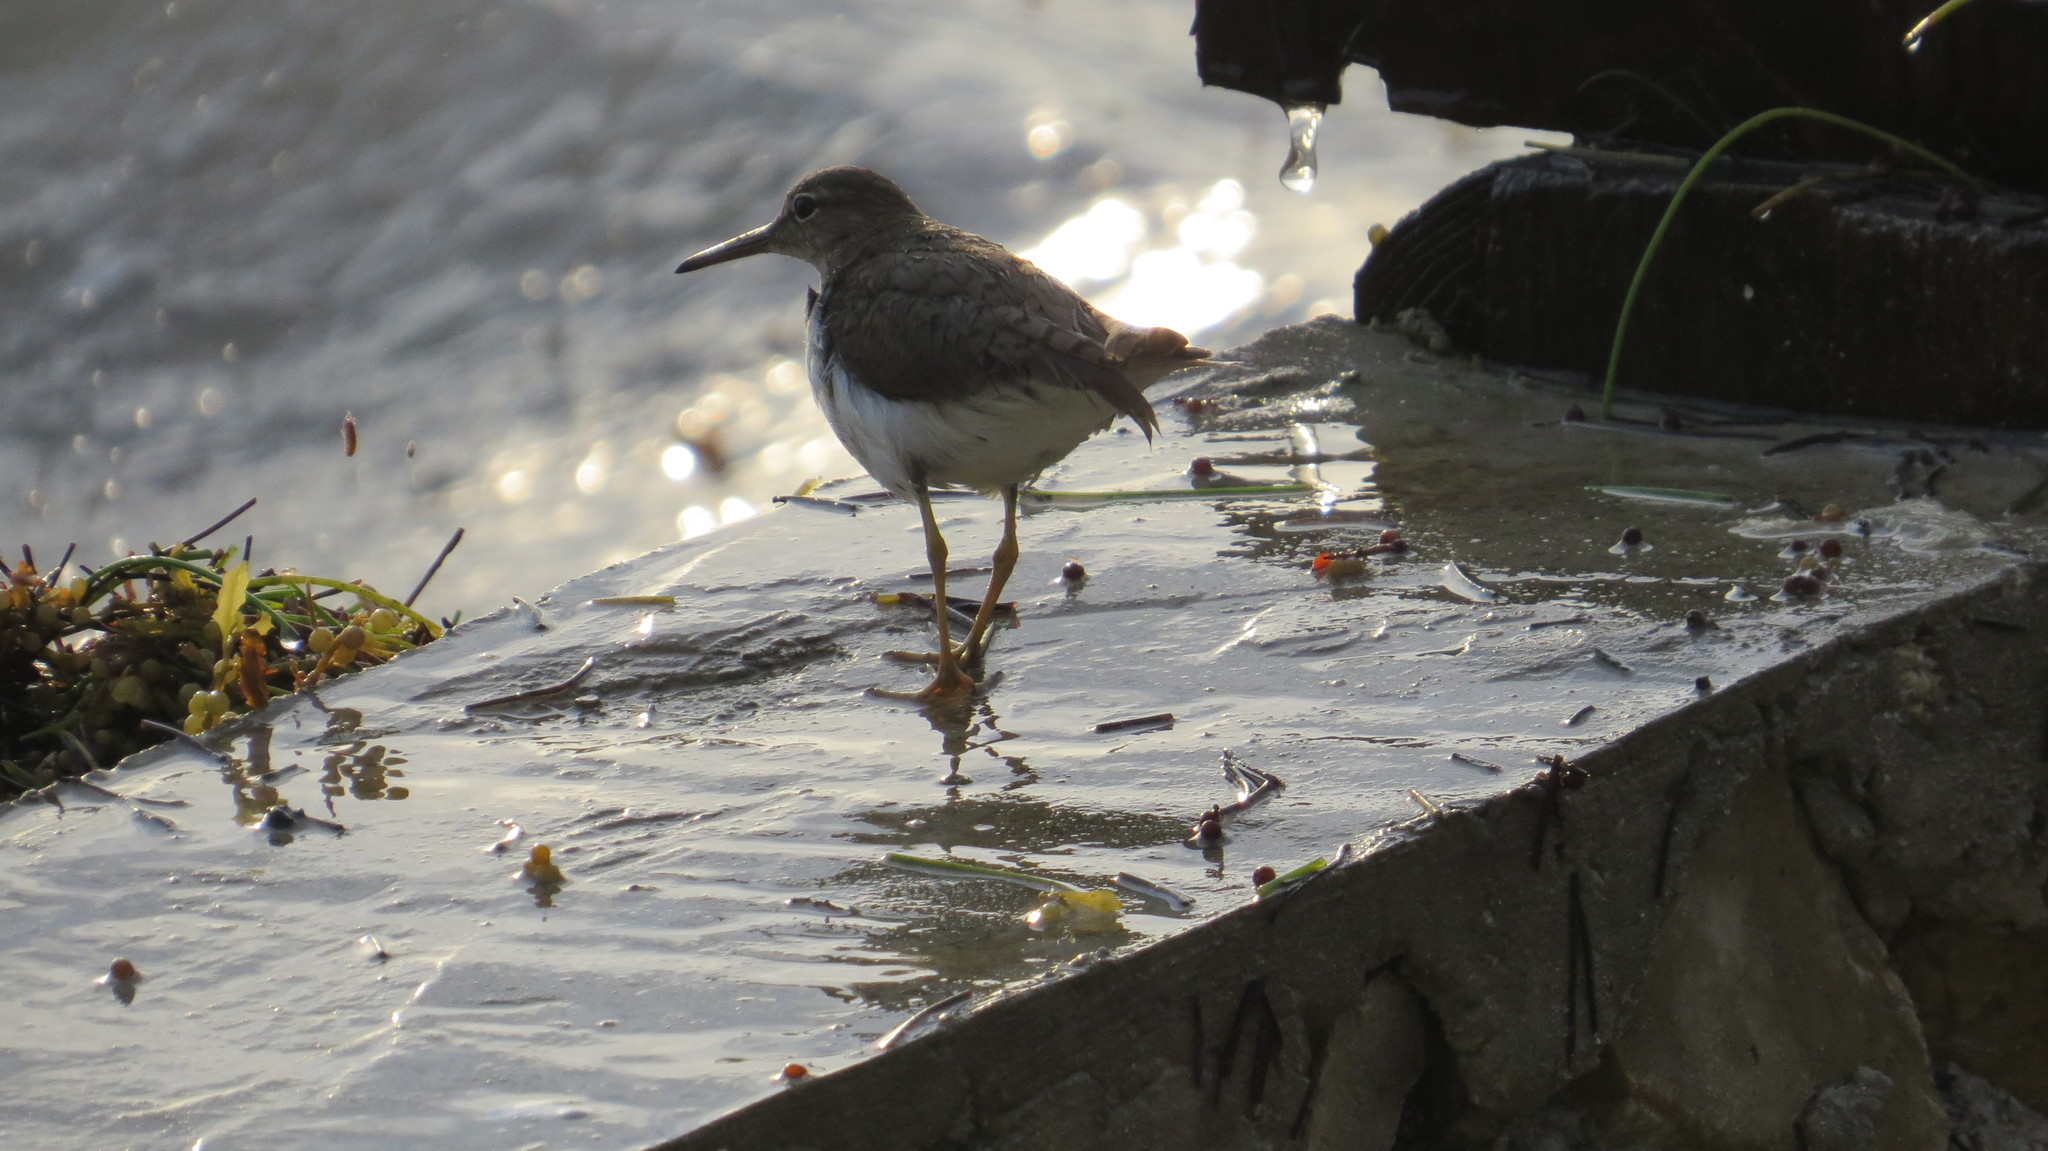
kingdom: Animalia
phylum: Chordata
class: Aves
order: Charadriiformes
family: Scolopacidae
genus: Actitis
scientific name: Actitis macularius
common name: Spotted sandpiper
